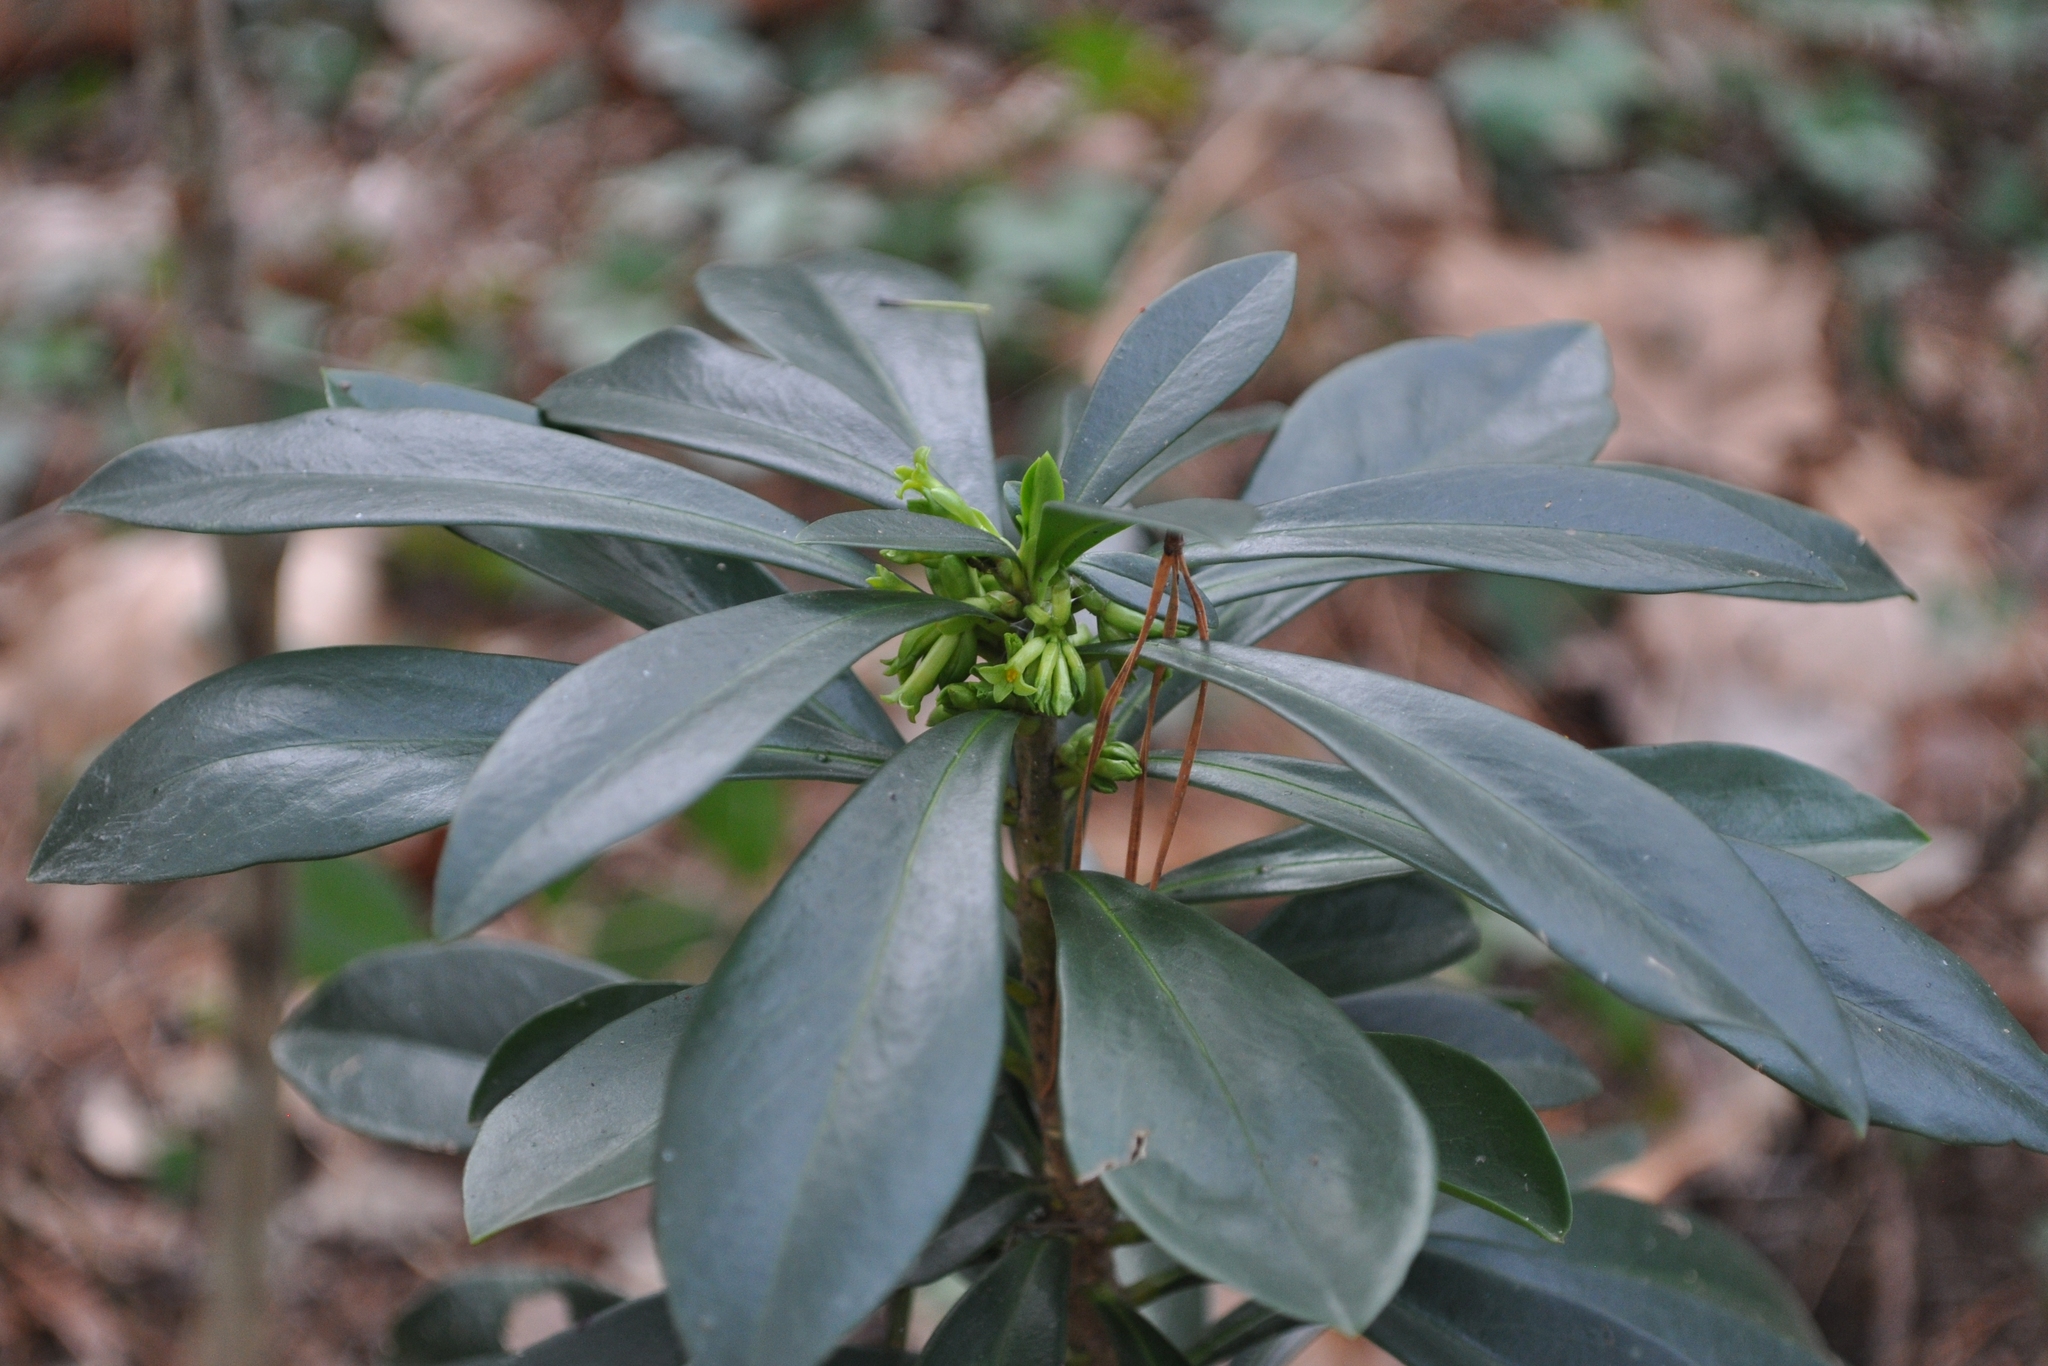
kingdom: Plantae
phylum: Tracheophyta
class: Magnoliopsida
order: Malvales
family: Thymelaeaceae
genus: Daphne
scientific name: Daphne laureola
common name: Spurge-laurel
